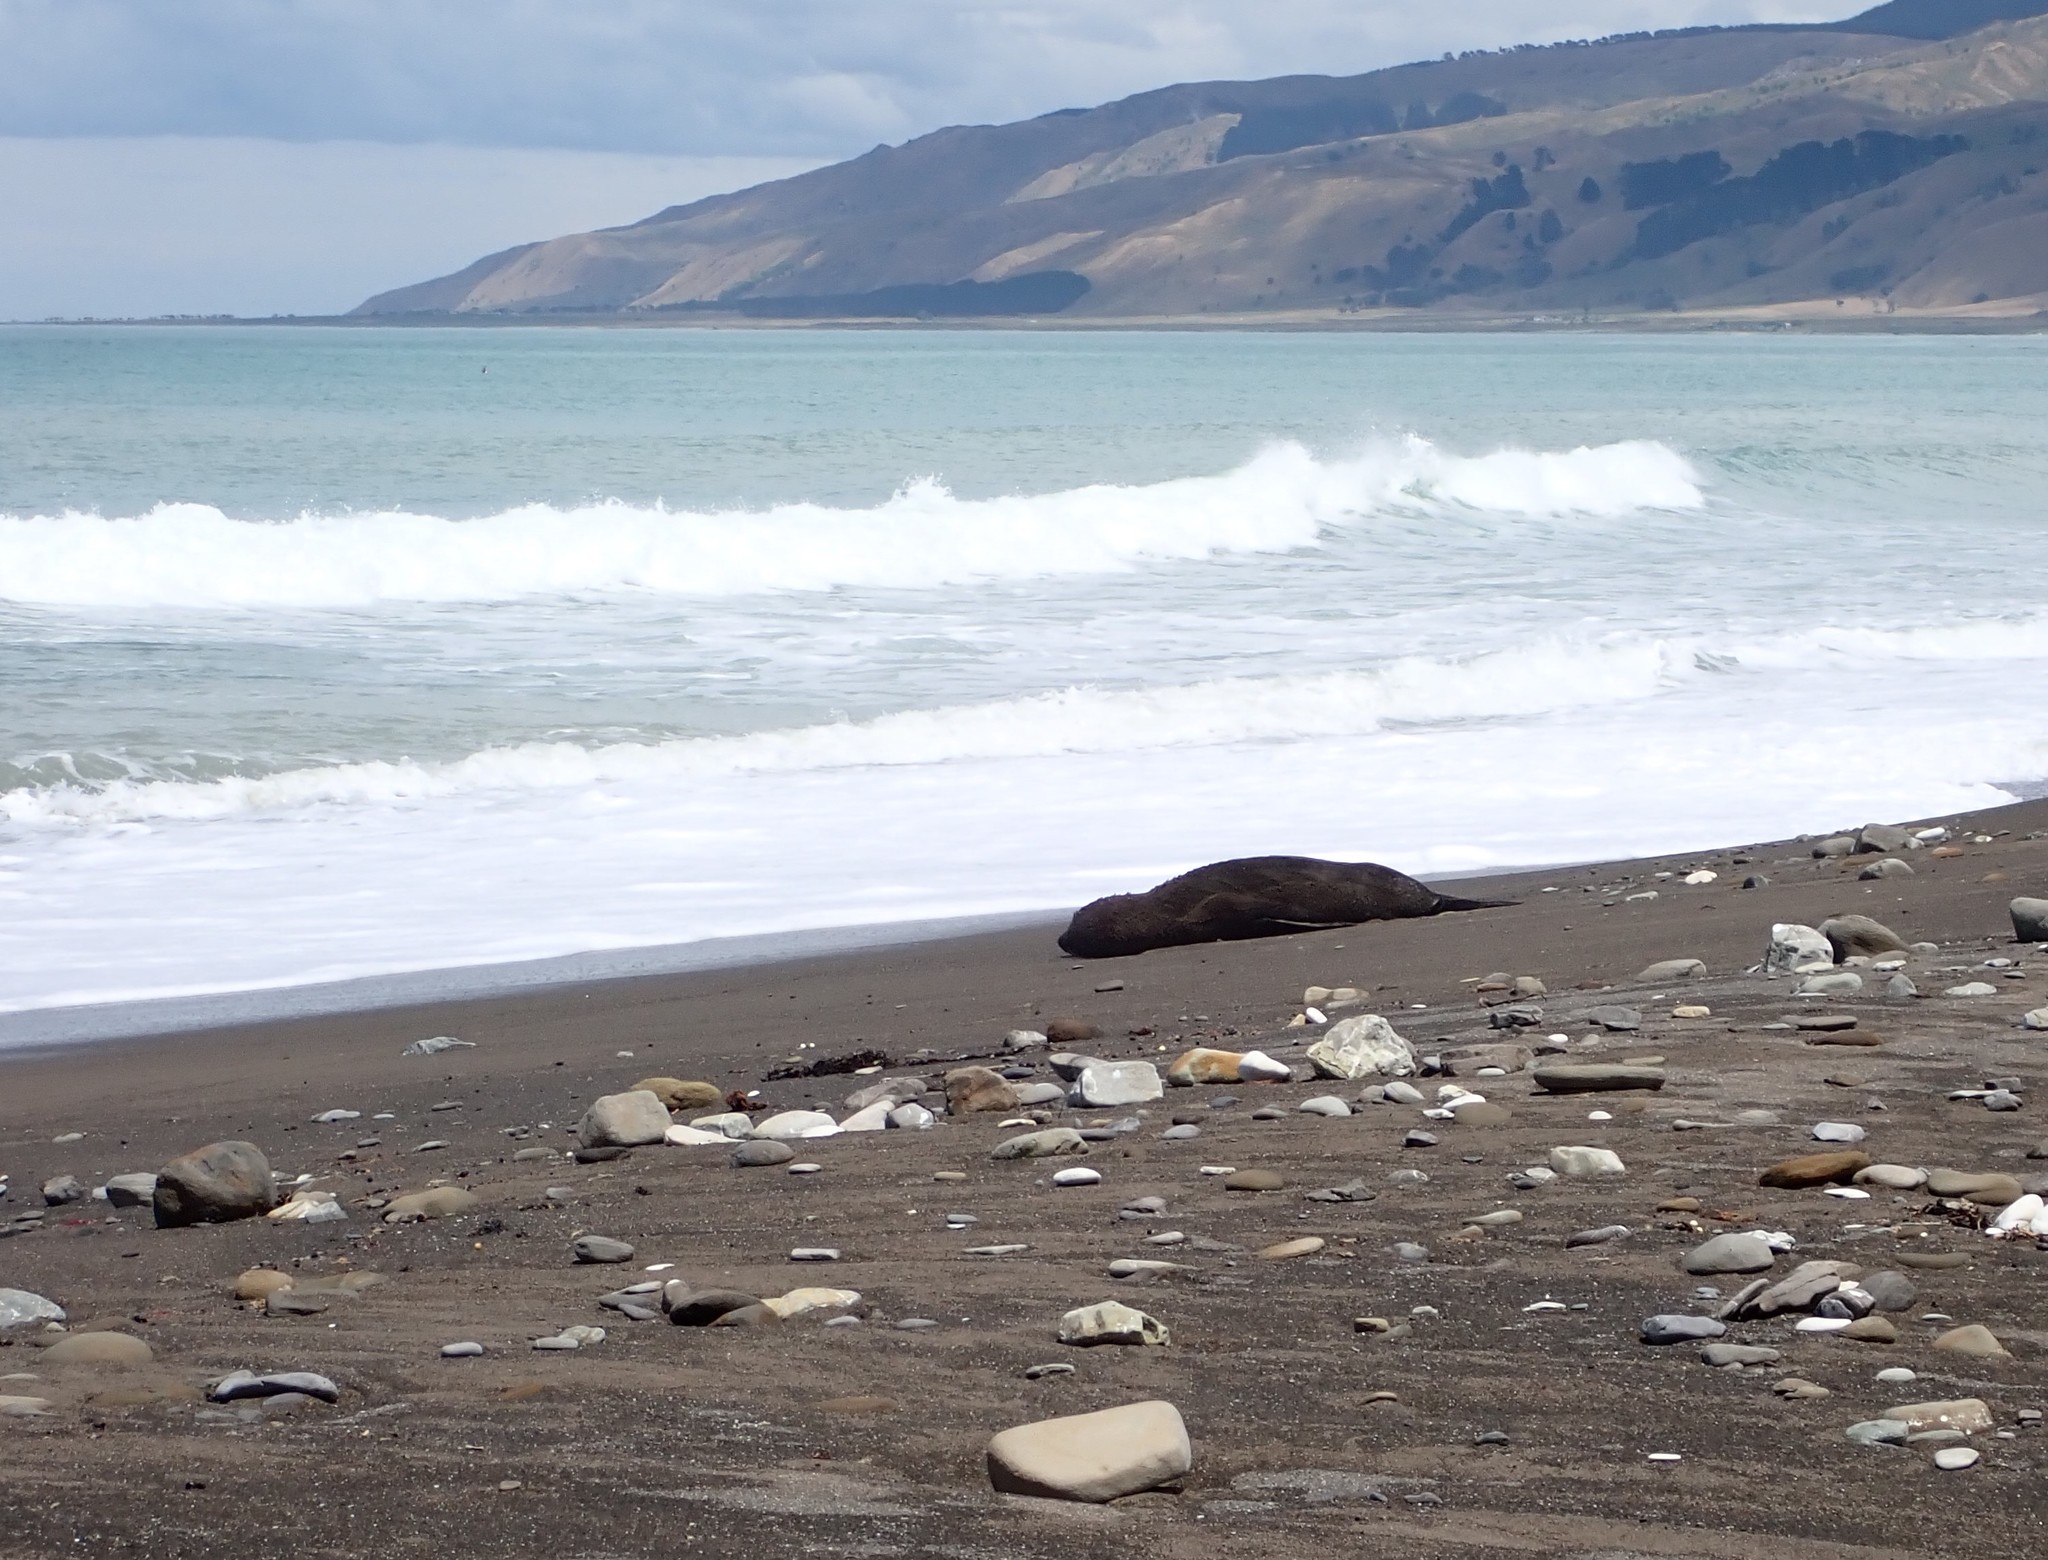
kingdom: Animalia
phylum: Chordata
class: Mammalia
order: Carnivora
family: Otariidae
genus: Arctocephalus
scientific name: Arctocephalus forsteri
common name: New zealand fur seal
